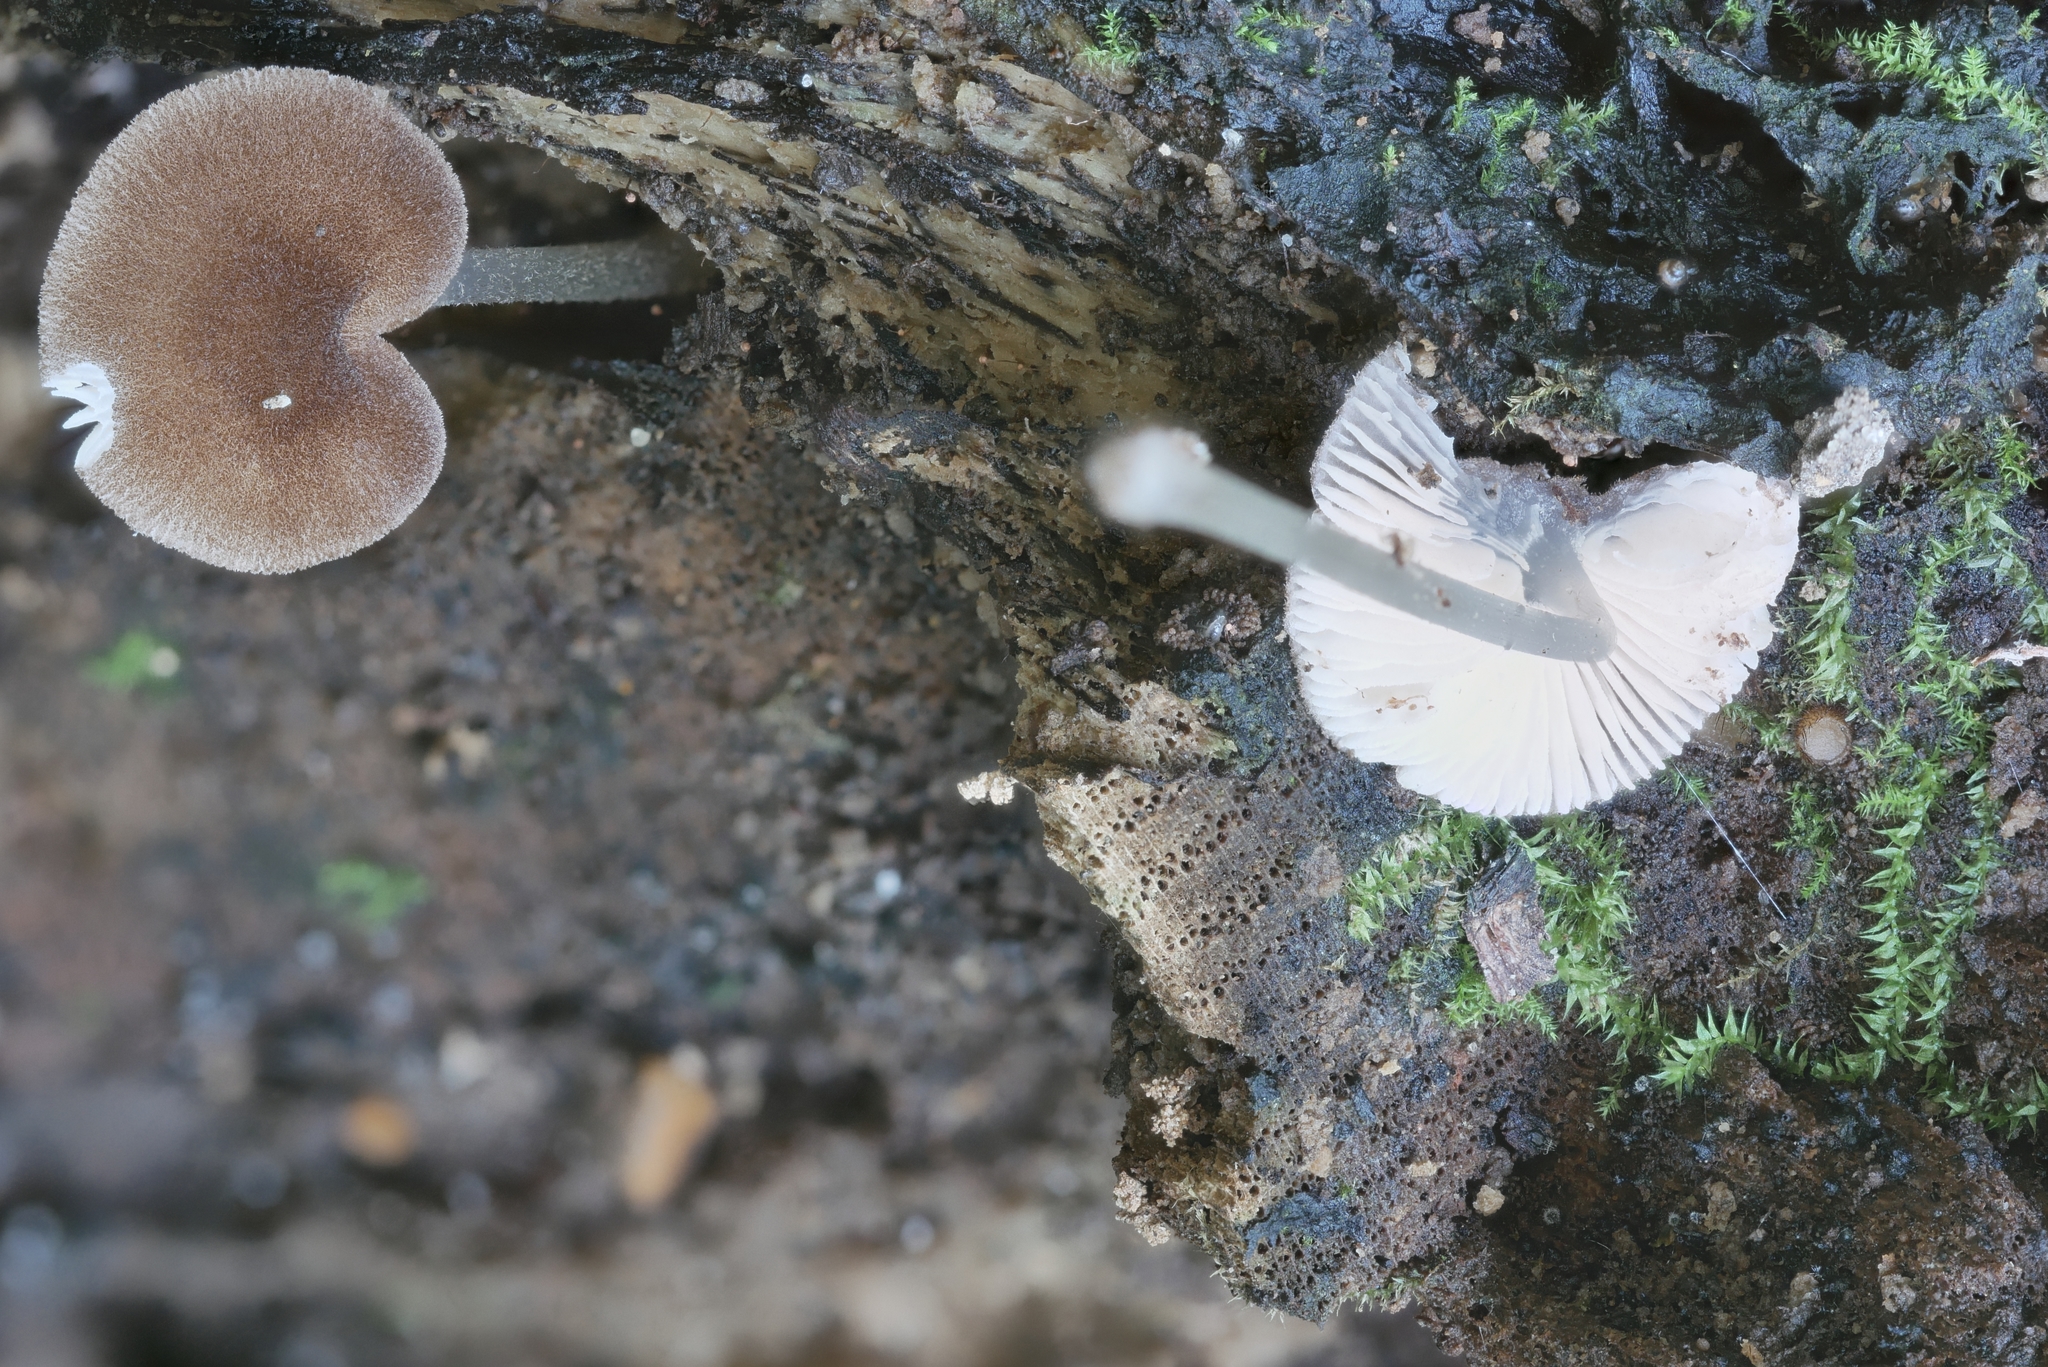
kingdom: Fungi
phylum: Basidiomycota
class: Agaricomycetes
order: Agaricales
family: Pluteaceae
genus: Pluteus
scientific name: Pluteus podospileus
